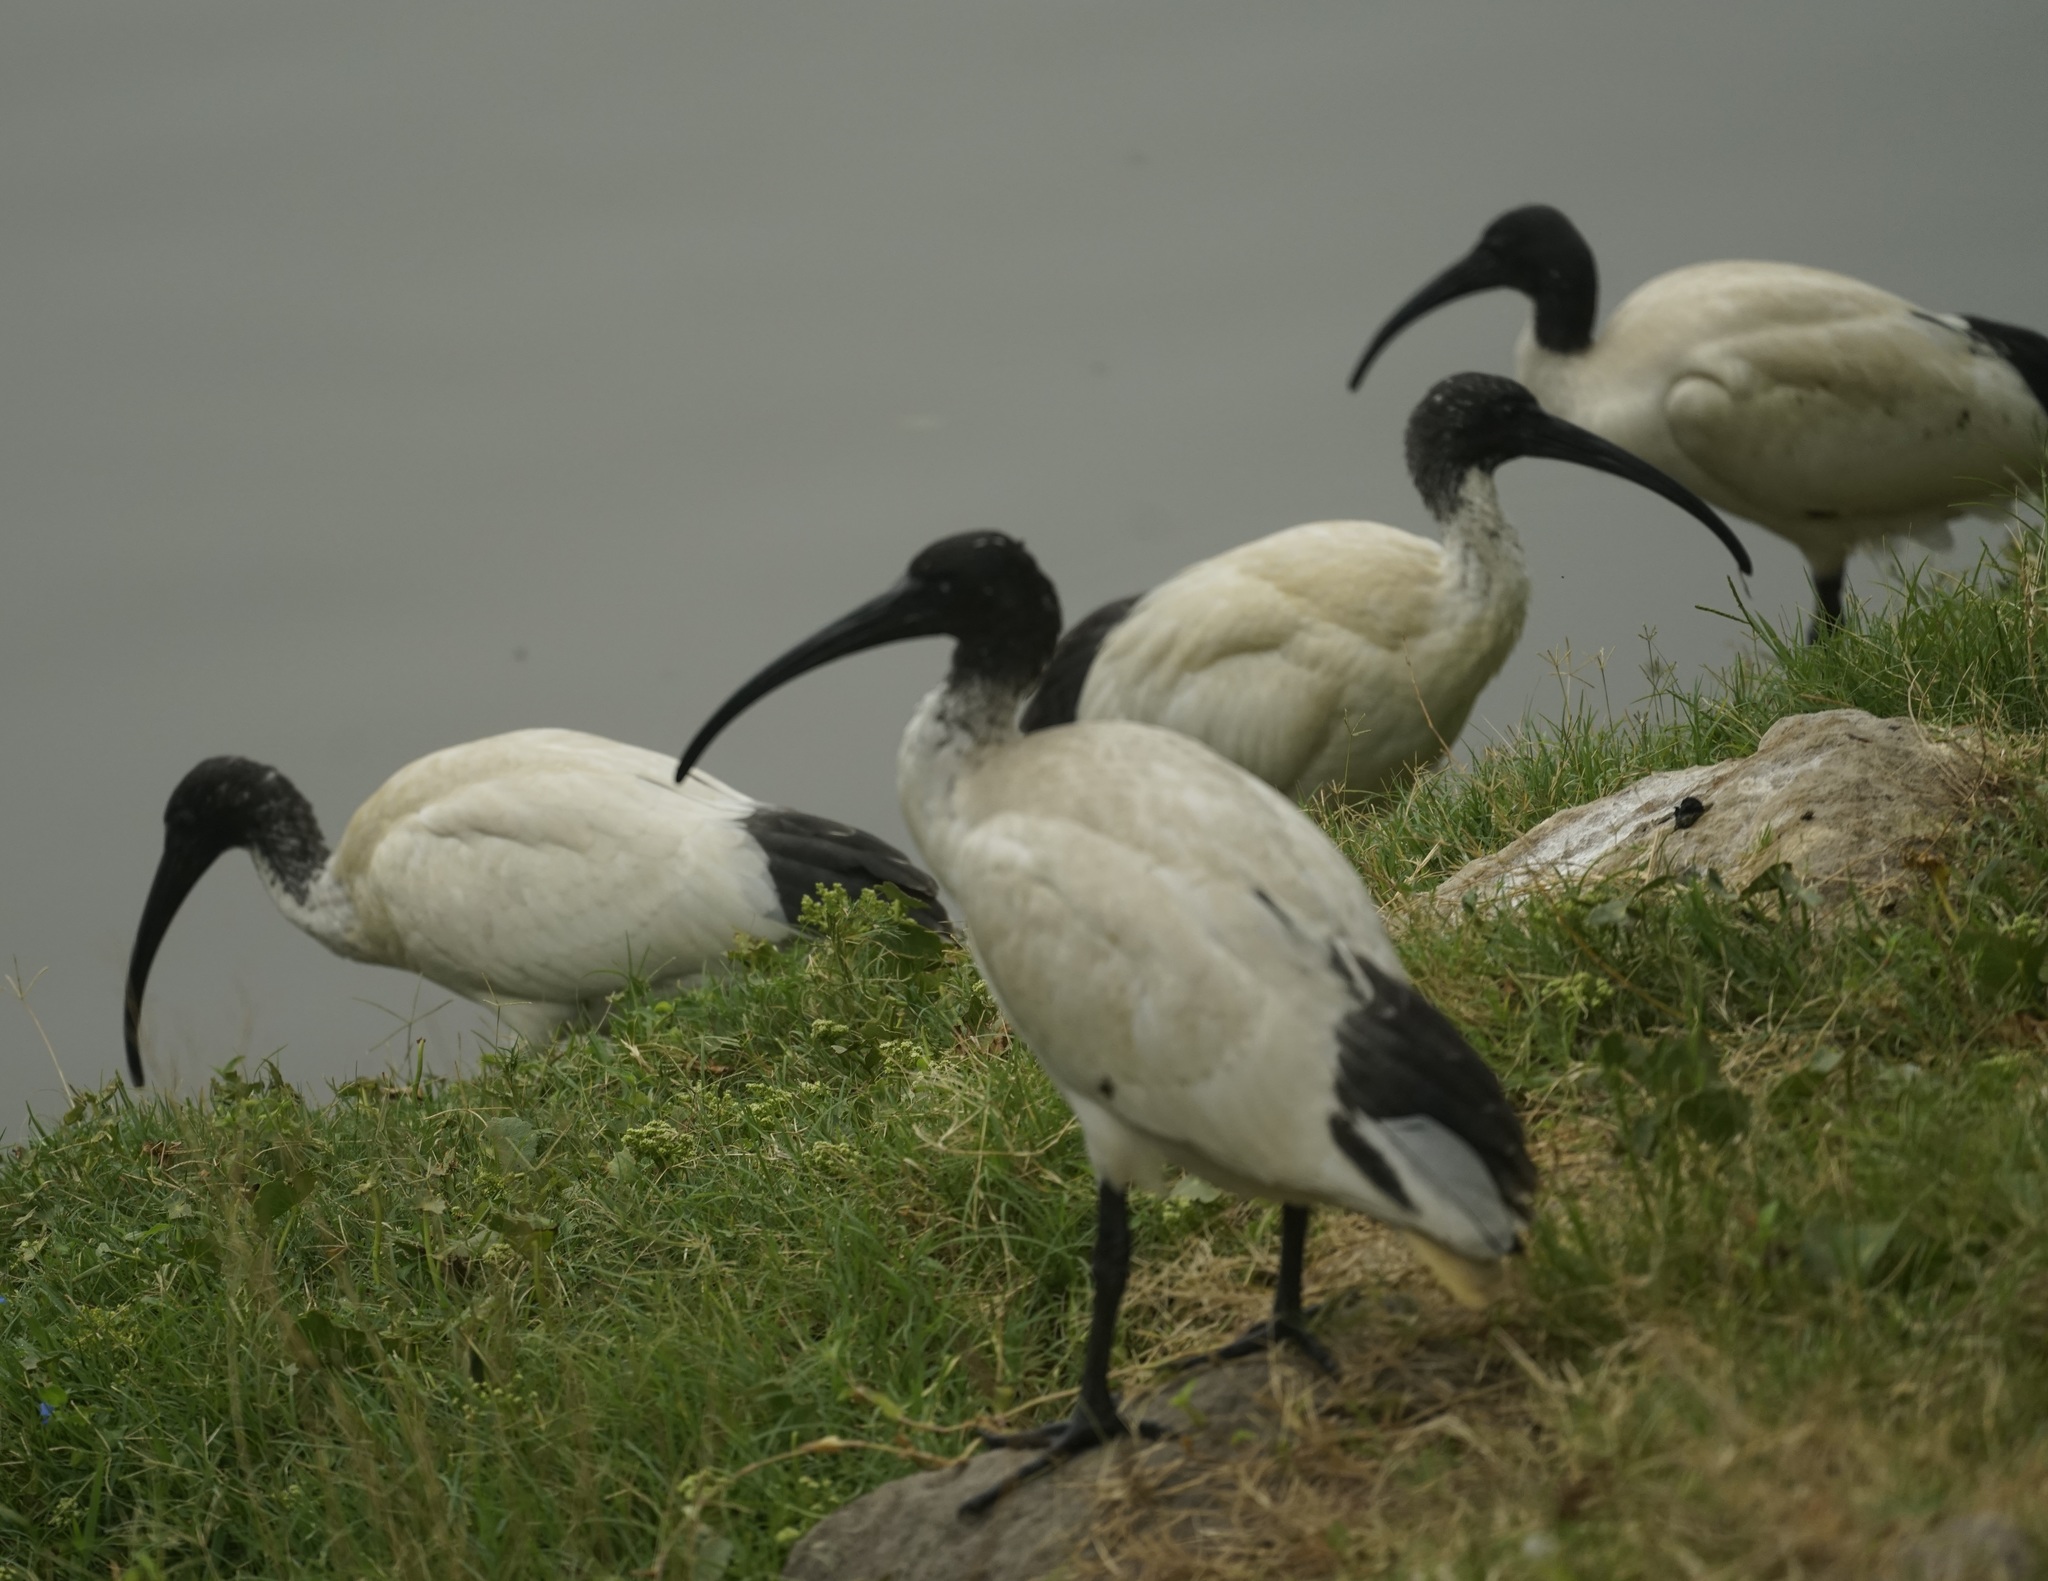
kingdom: Animalia
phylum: Chordata
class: Aves
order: Pelecaniformes
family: Threskiornithidae
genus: Threskiornis
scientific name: Threskiornis molucca
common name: Australian white ibis
